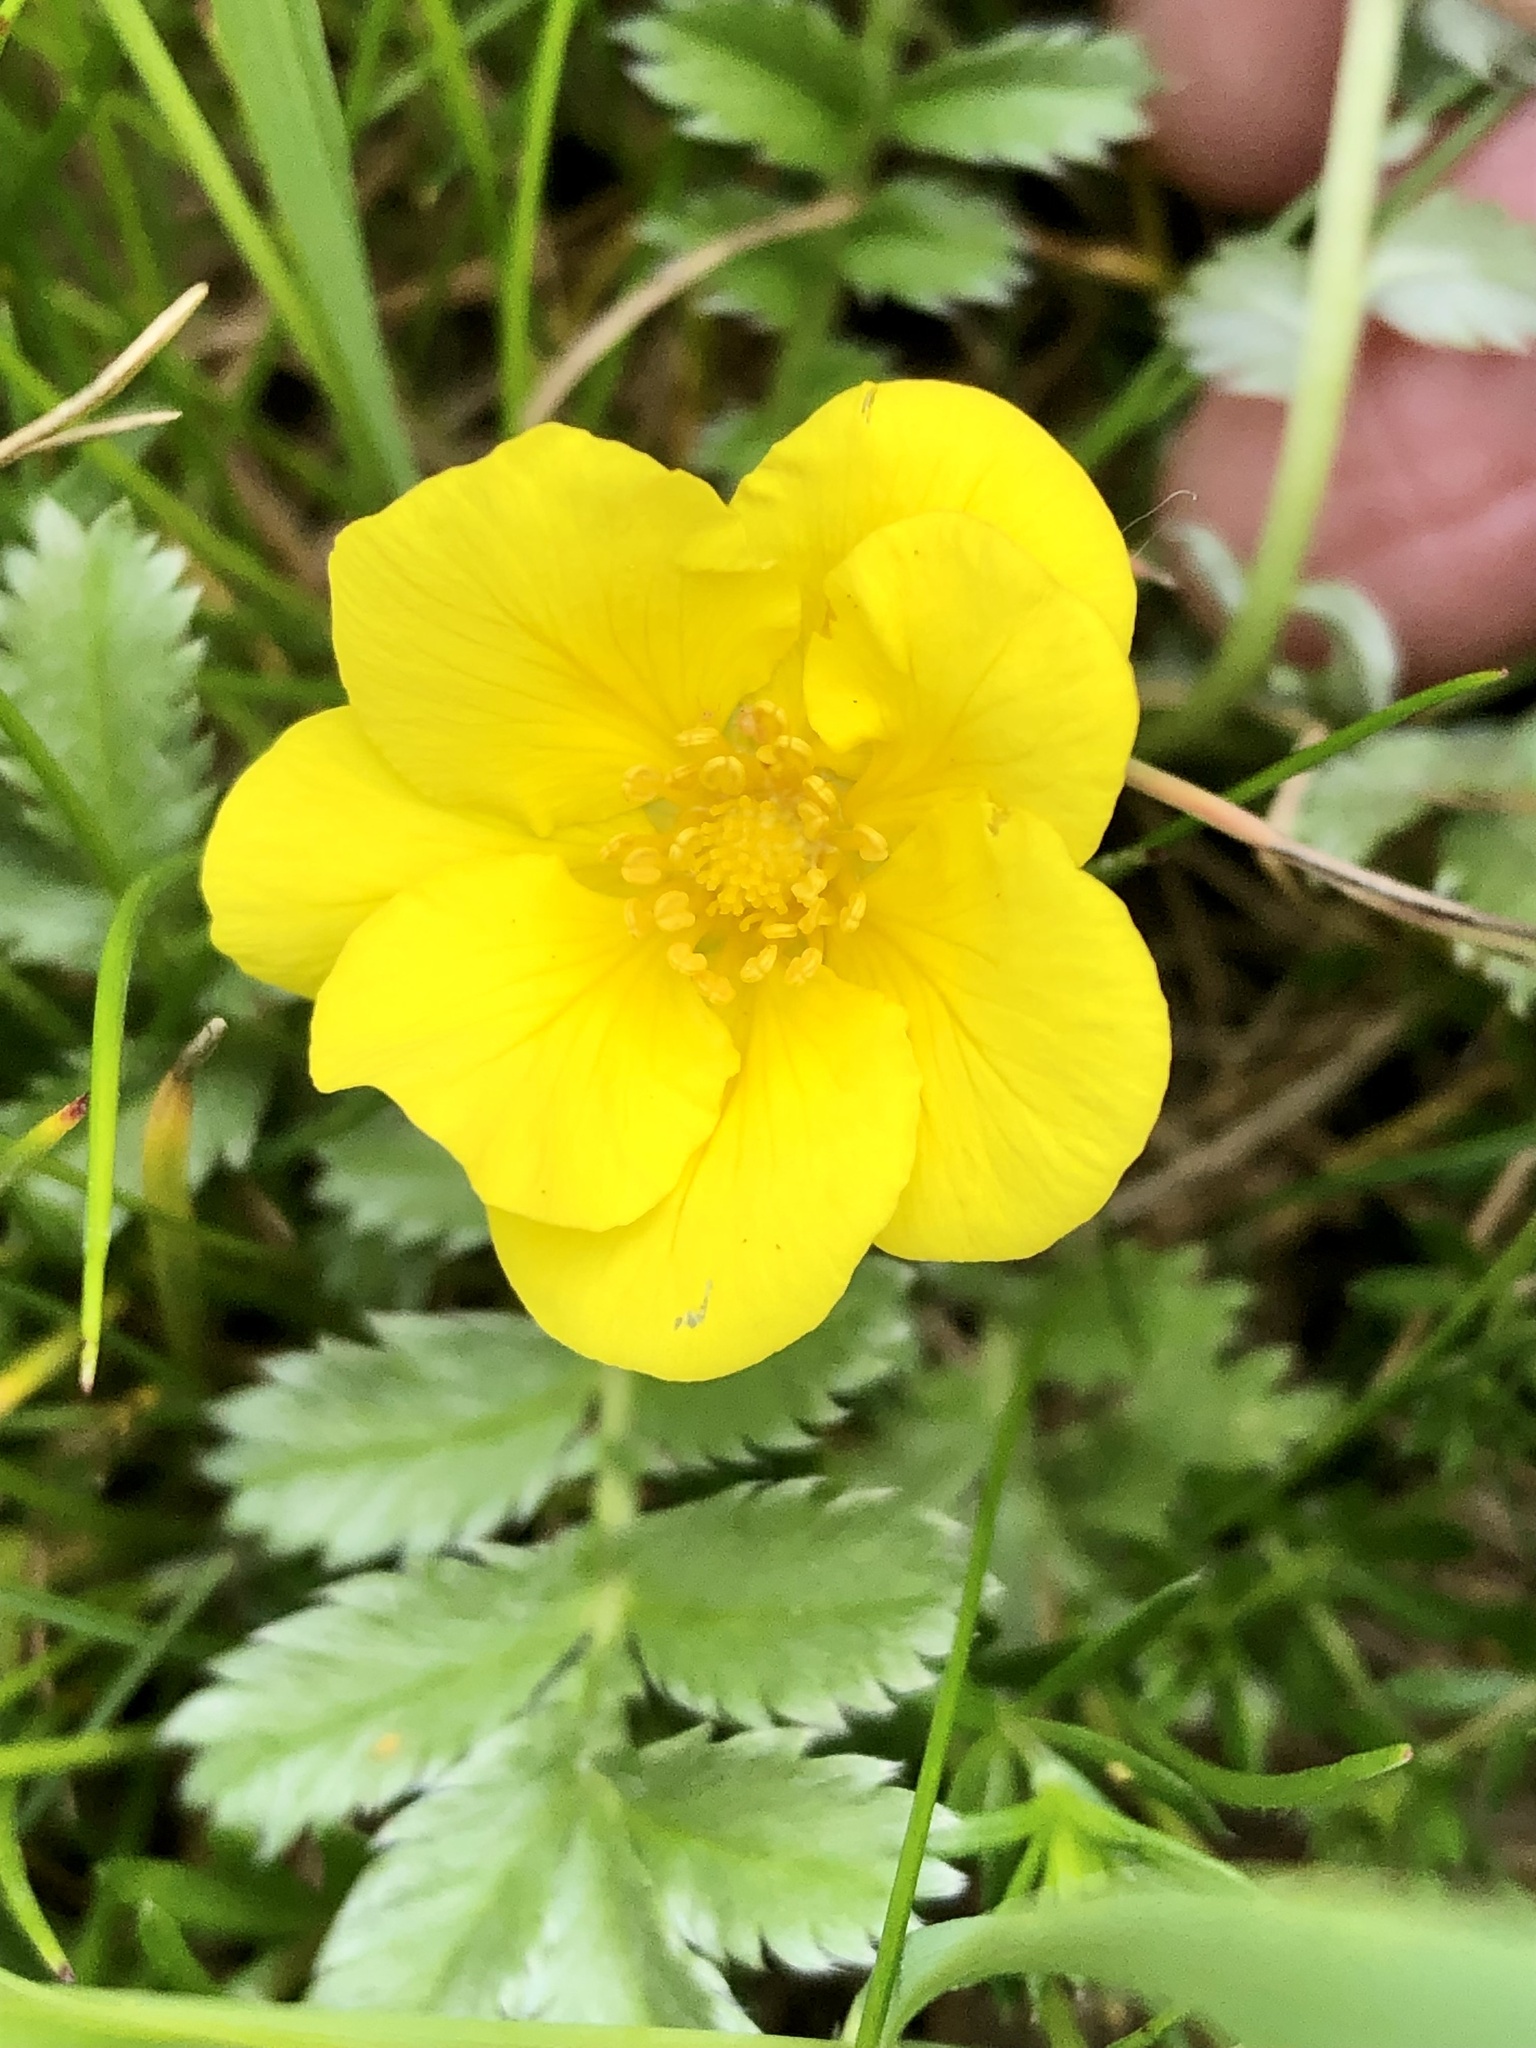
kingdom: Plantae
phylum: Tracheophyta
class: Magnoliopsida
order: Rosales
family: Rosaceae
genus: Argentina
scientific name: Argentina anserina
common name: Common silverweed
